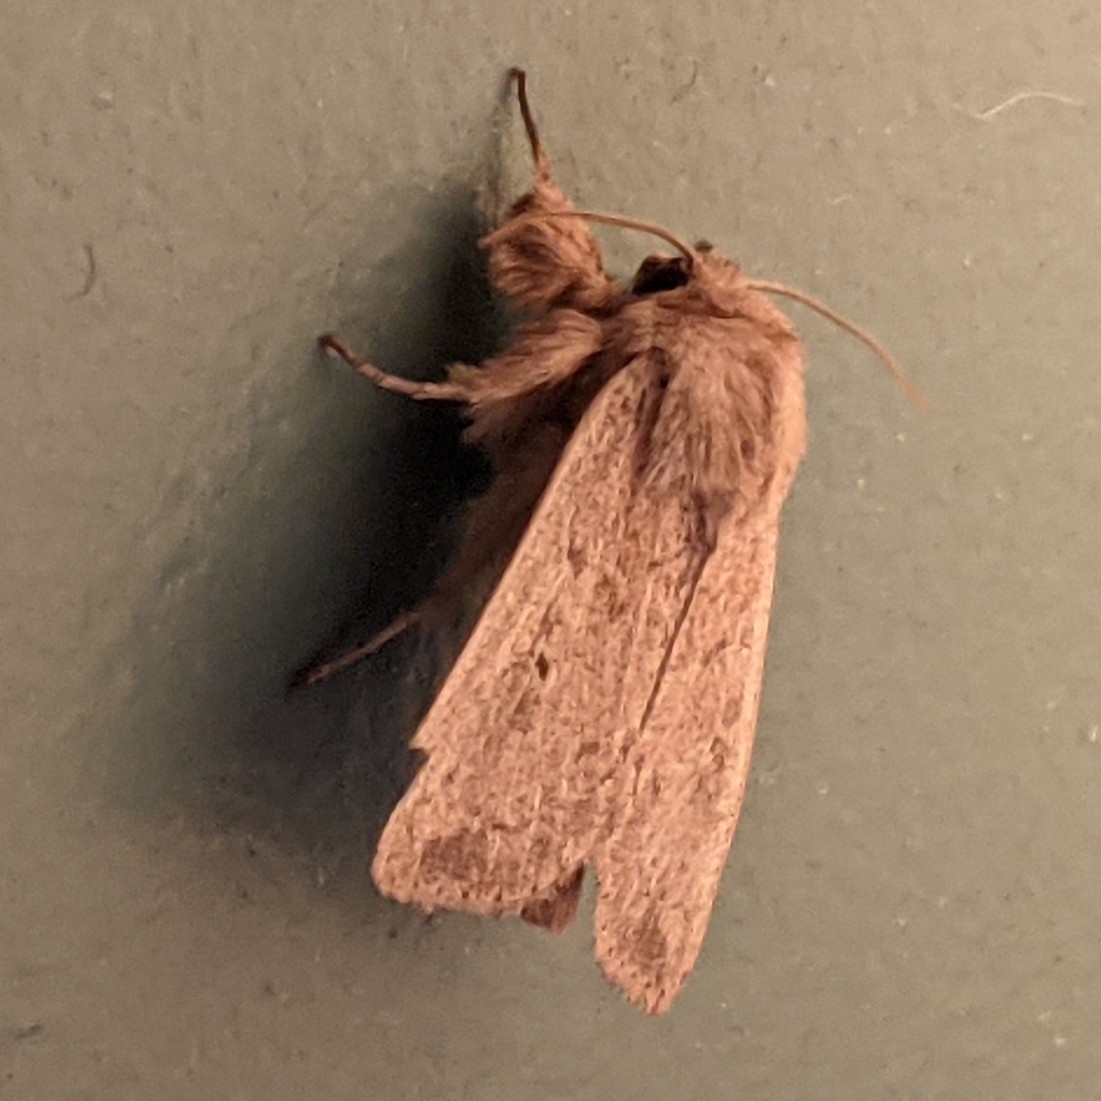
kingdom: Animalia
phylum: Arthropoda
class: Insecta
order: Lepidoptera
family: Noctuidae
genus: Leucania
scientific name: Leucania ursula
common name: Ursula wainscot
